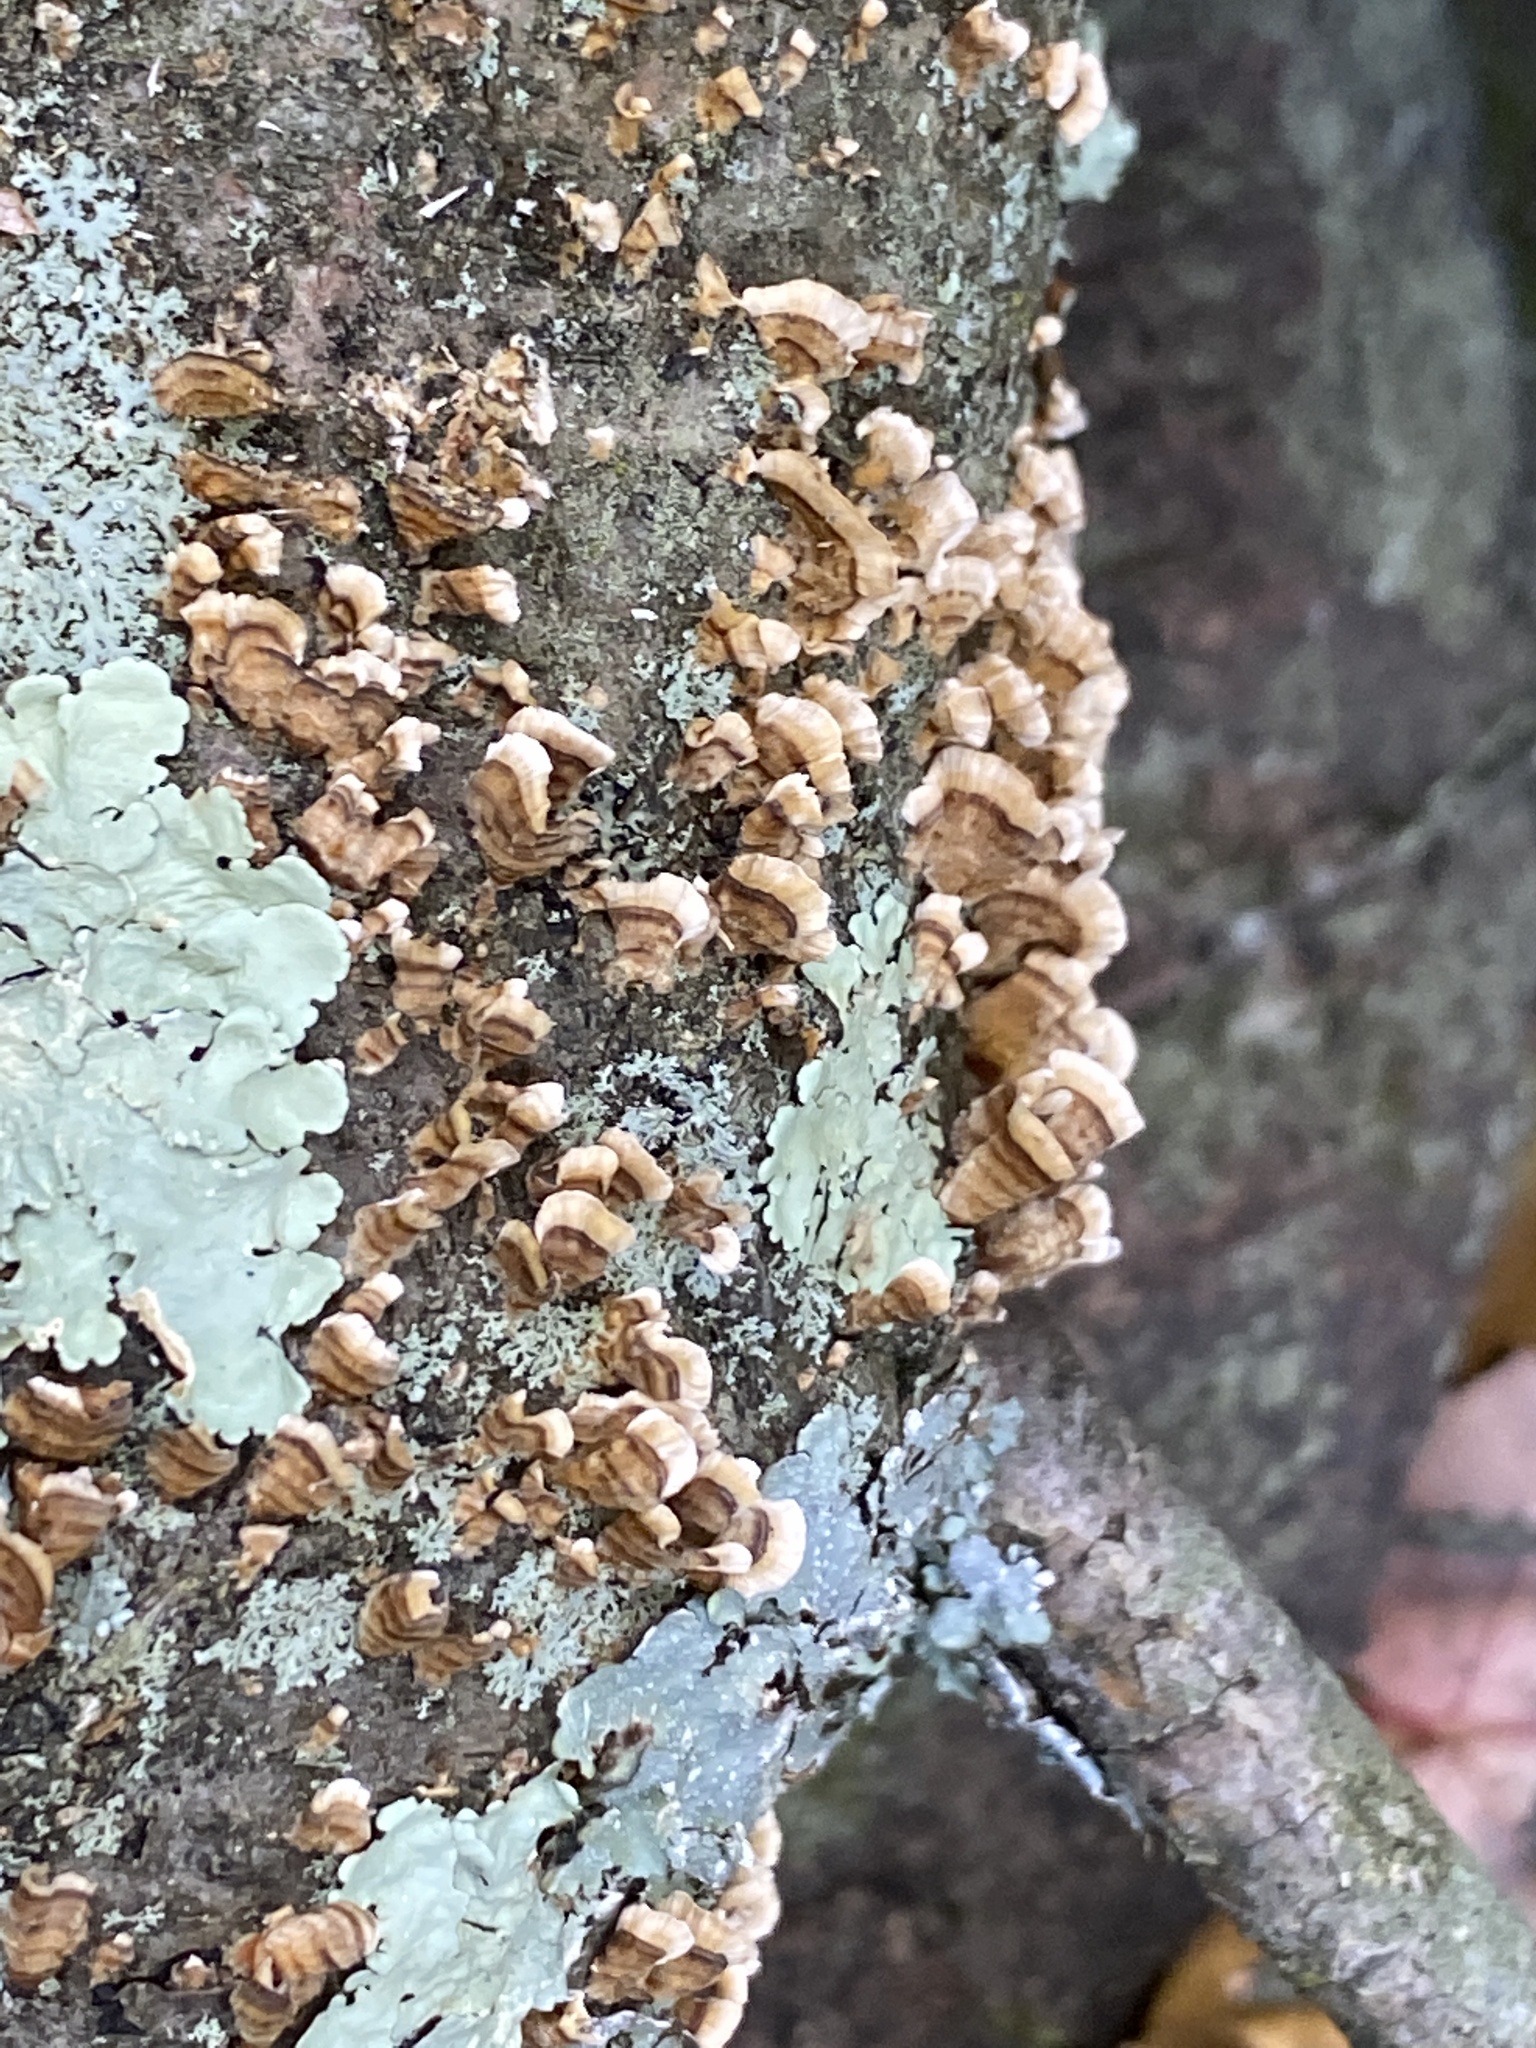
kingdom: Fungi
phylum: Basidiomycota
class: Agaricomycetes
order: Russulales
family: Stereaceae
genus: Stereum
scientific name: Stereum complicatum
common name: Crowded parchment
